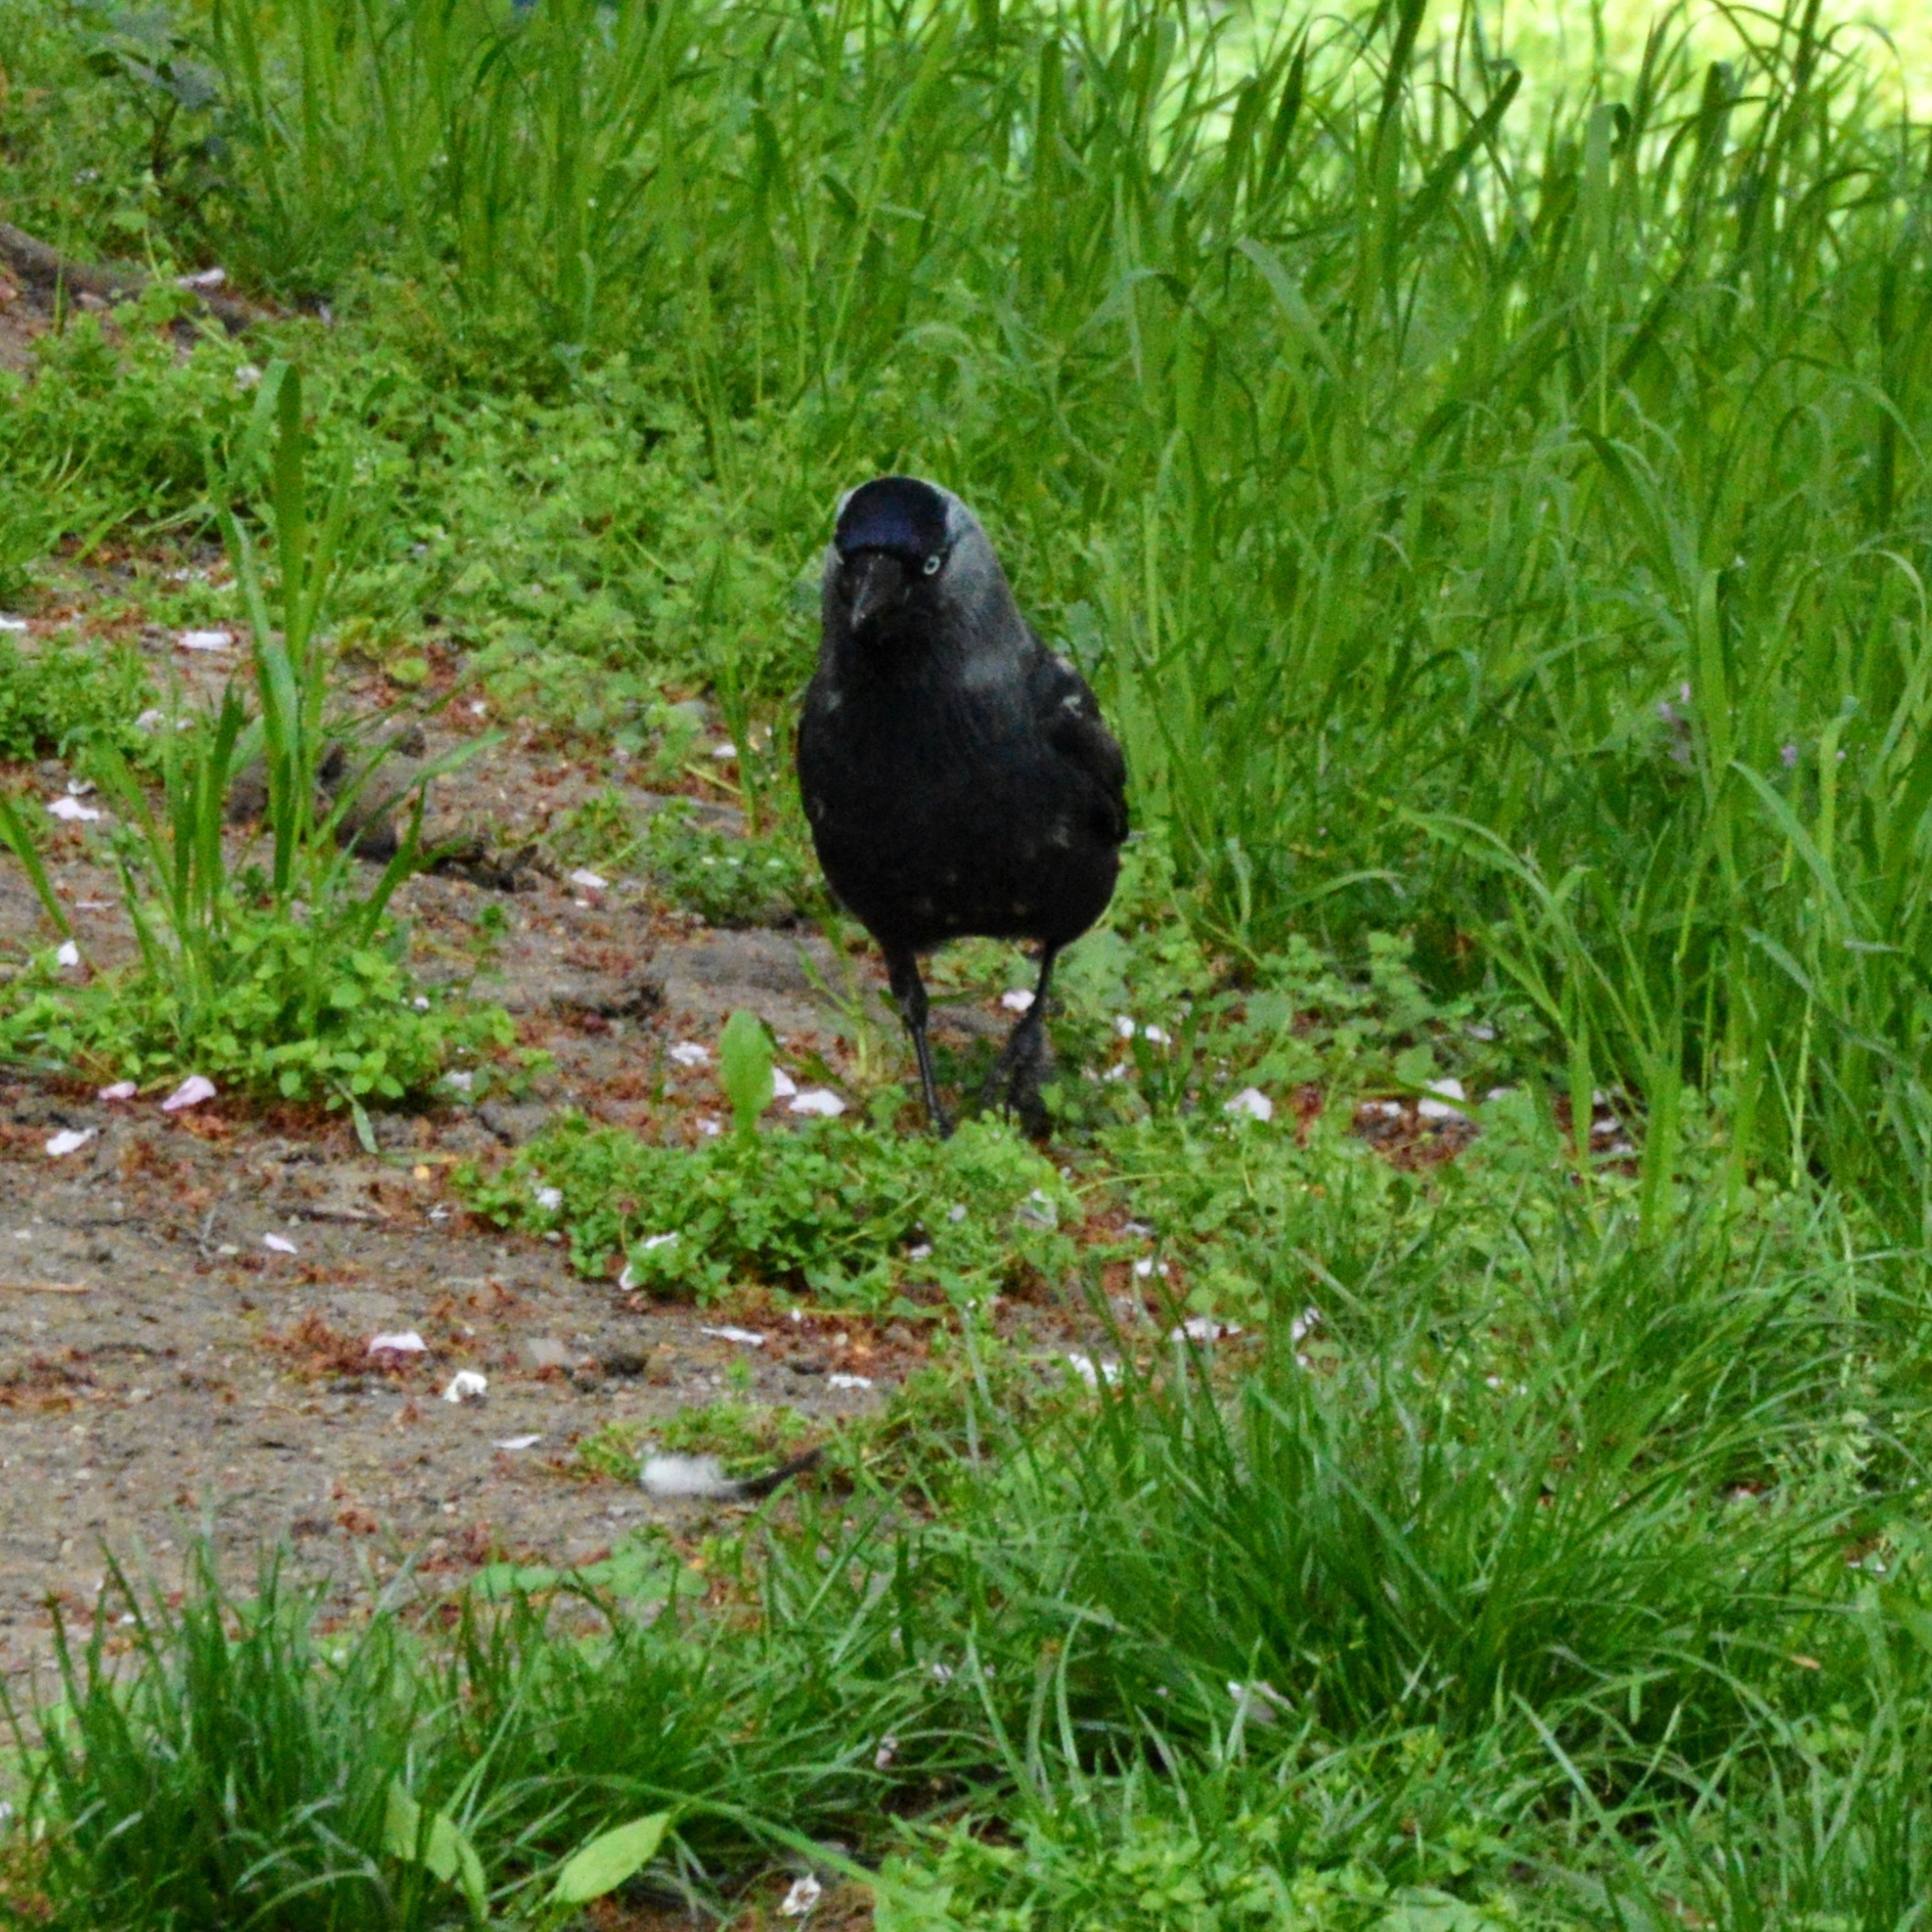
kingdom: Animalia
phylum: Chordata
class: Aves
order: Passeriformes
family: Corvidae
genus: Coloeus
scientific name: Coloeus monedula
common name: Western jackdaw
